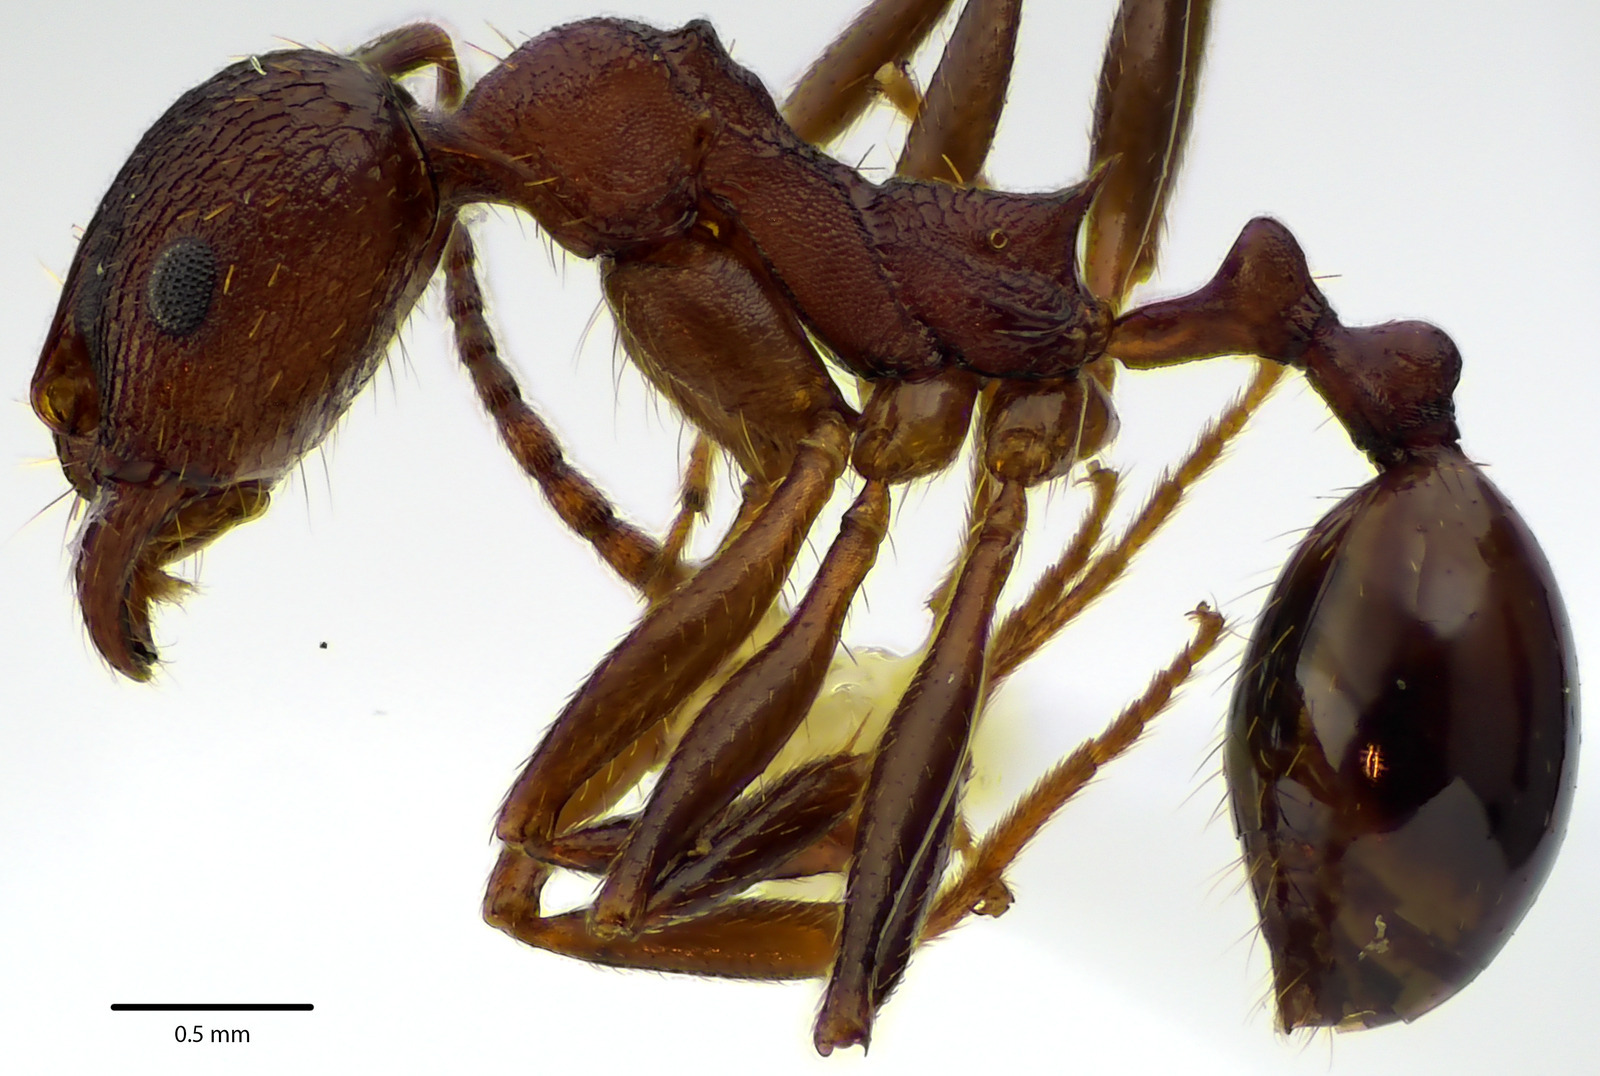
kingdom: Animalia
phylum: Arthropoda
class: Insecta
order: Hymenoptera
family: Formicidae
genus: Aphaenogaster
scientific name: Aphaenogaster fulva
